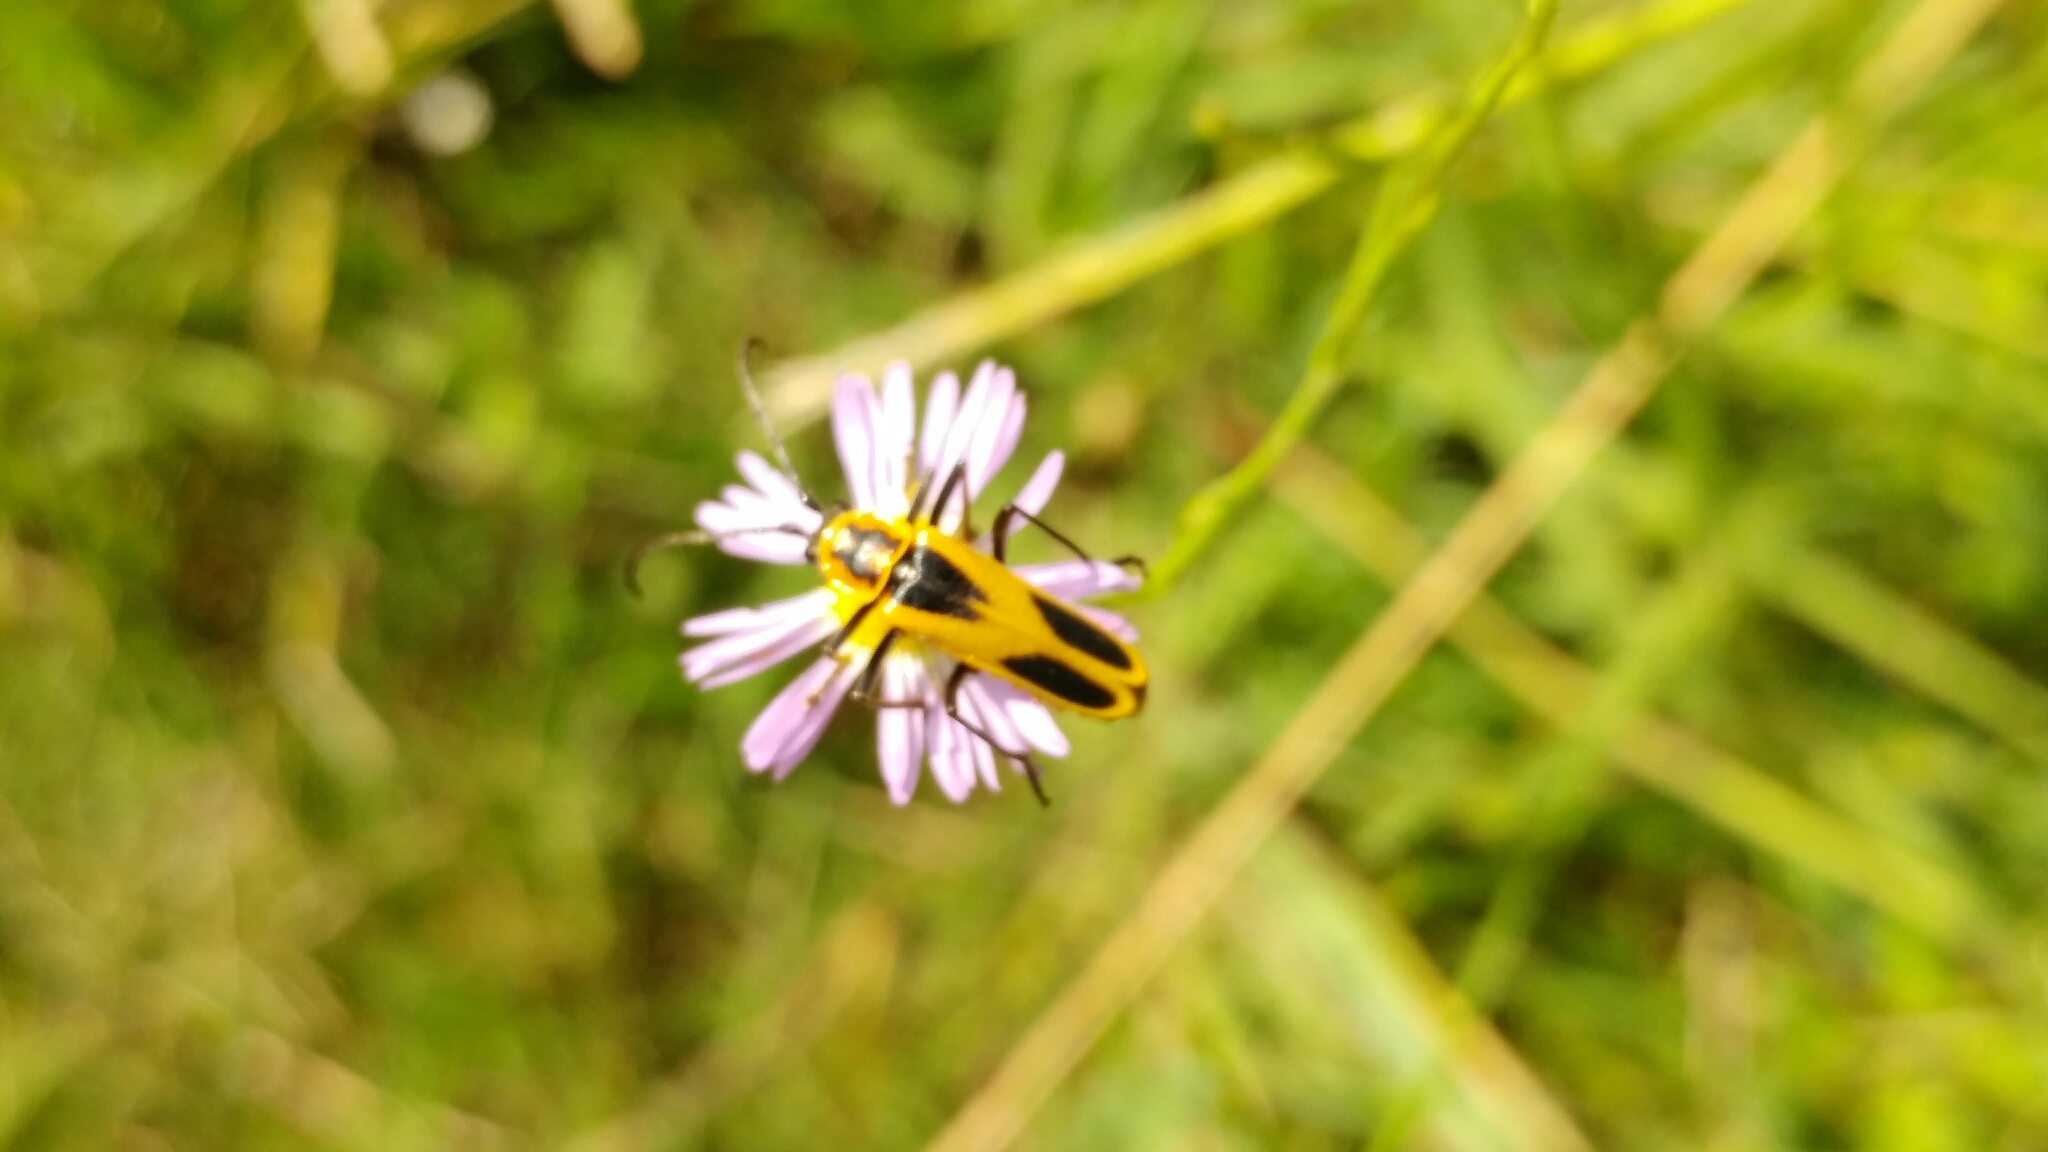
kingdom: Animalia
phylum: Arthropoda
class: Insecta
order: Coleoptera
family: Cantharidae
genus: Chauliognathus
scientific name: Chauliognathus scutellaris
